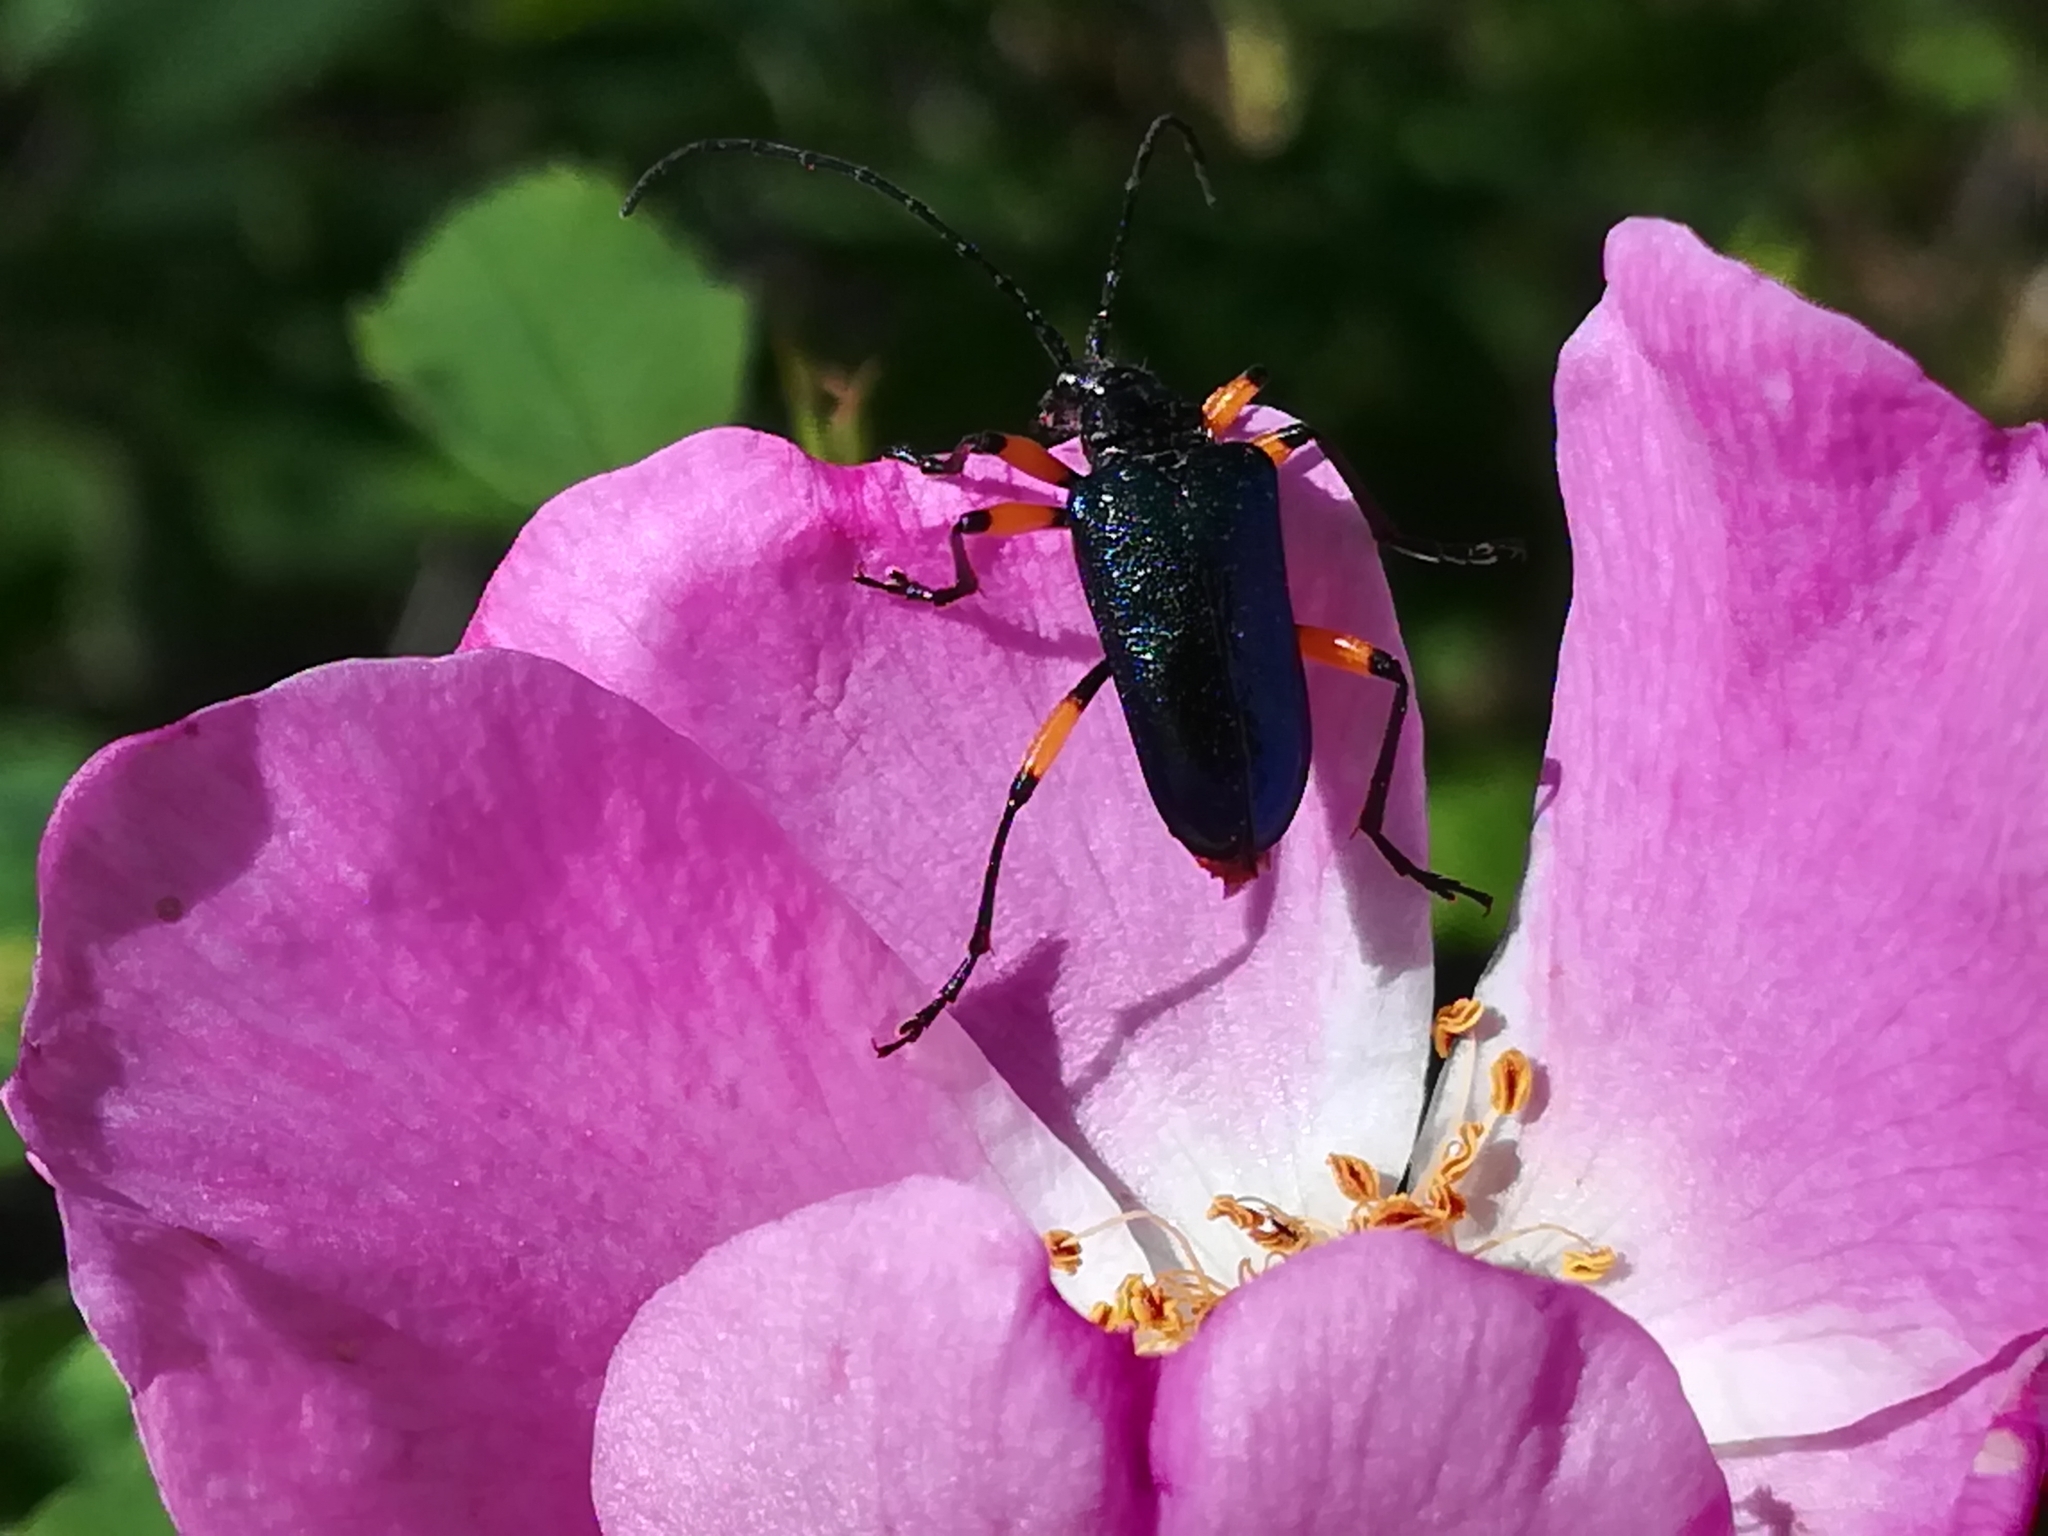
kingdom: Animalia
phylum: Arthropoda
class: Insecta
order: Coleoptera
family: Cerambycidae
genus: Pseudogaurotina
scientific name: Pseudogaurotina cressoni
